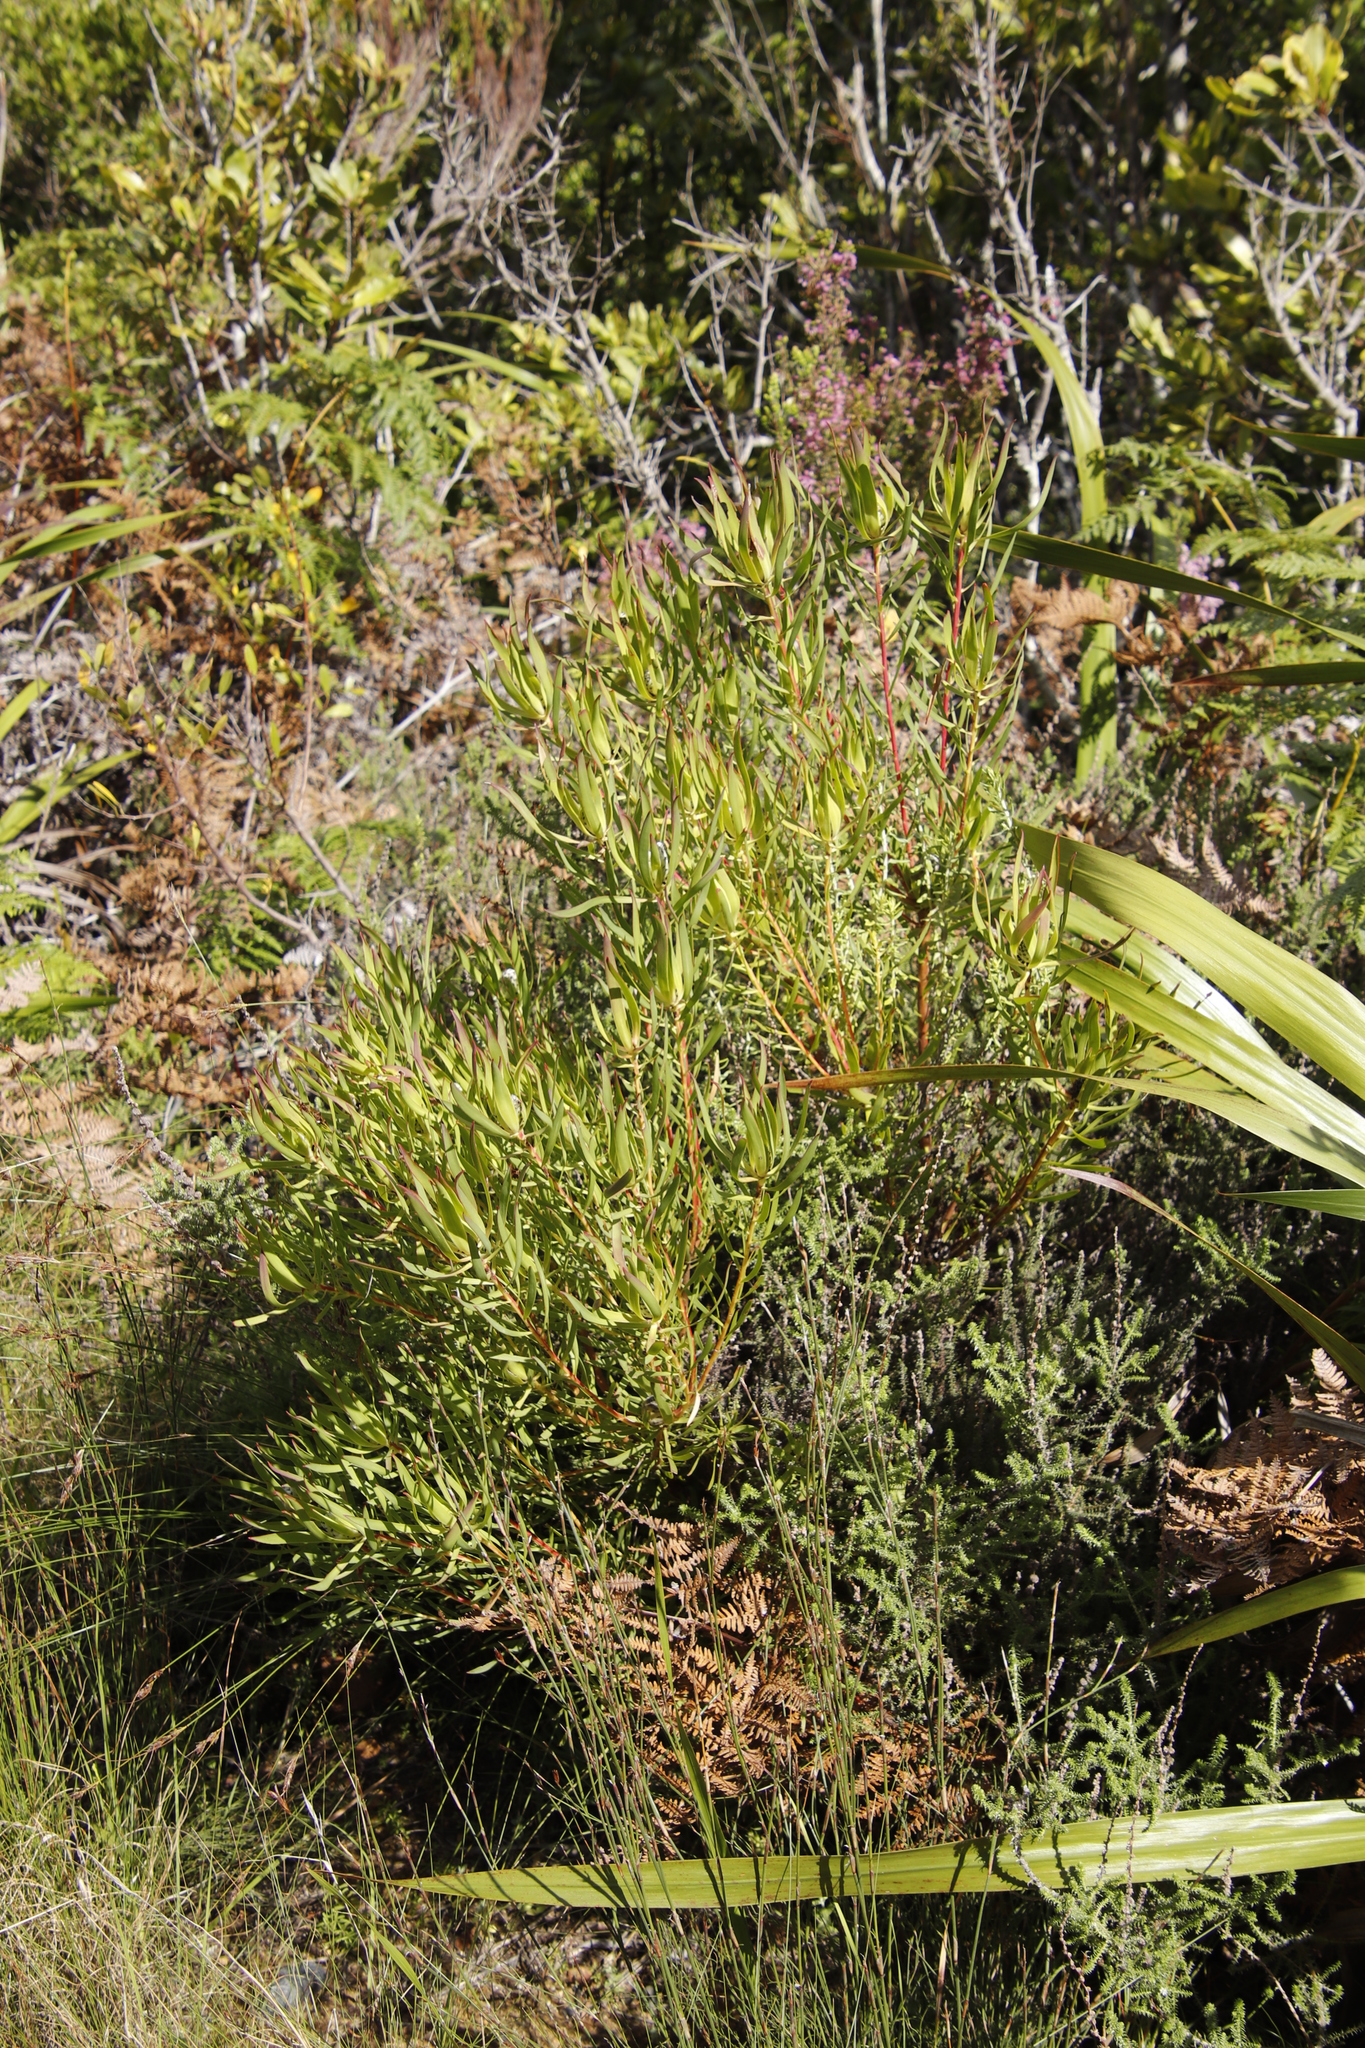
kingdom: Plantae
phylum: Tracheophyta
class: Magnoliopsida
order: Proteales
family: Proteaceae
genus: Leucadendron
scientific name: Leucadendron salignum
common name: Common sunshine conebush
